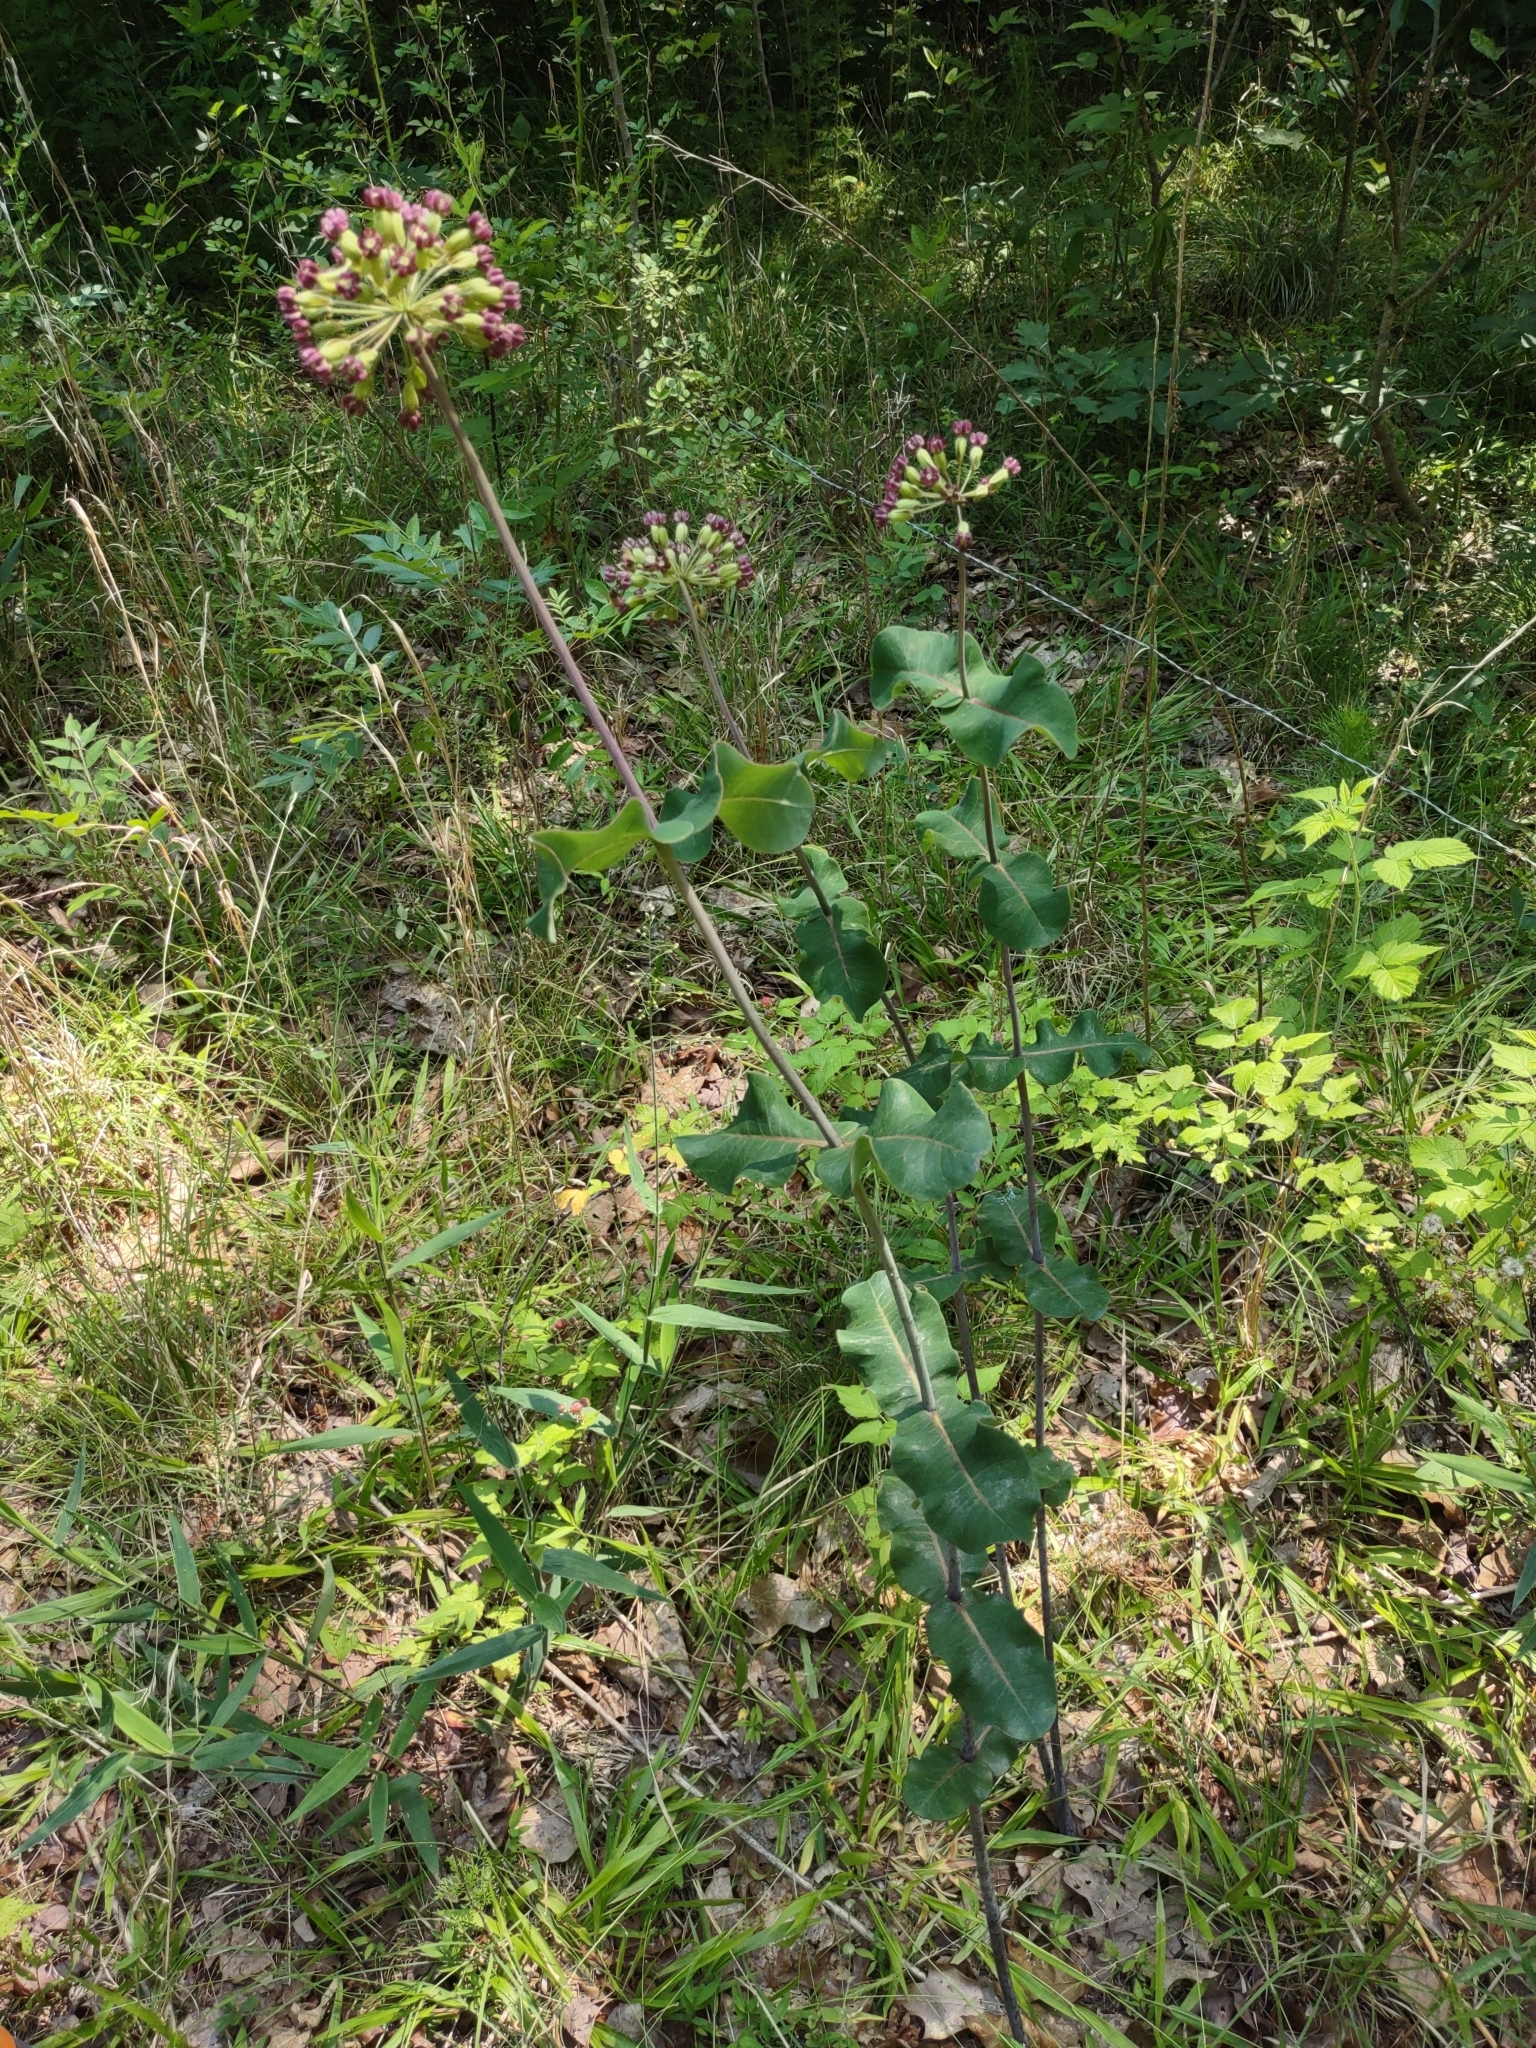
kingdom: Plantae
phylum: Tracheophyta
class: Magnoliopsida
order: Gentianales
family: Apocynaceae
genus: Asclepias
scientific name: Asclepias amplexicaulis
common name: Blunt-leaf milkweed
